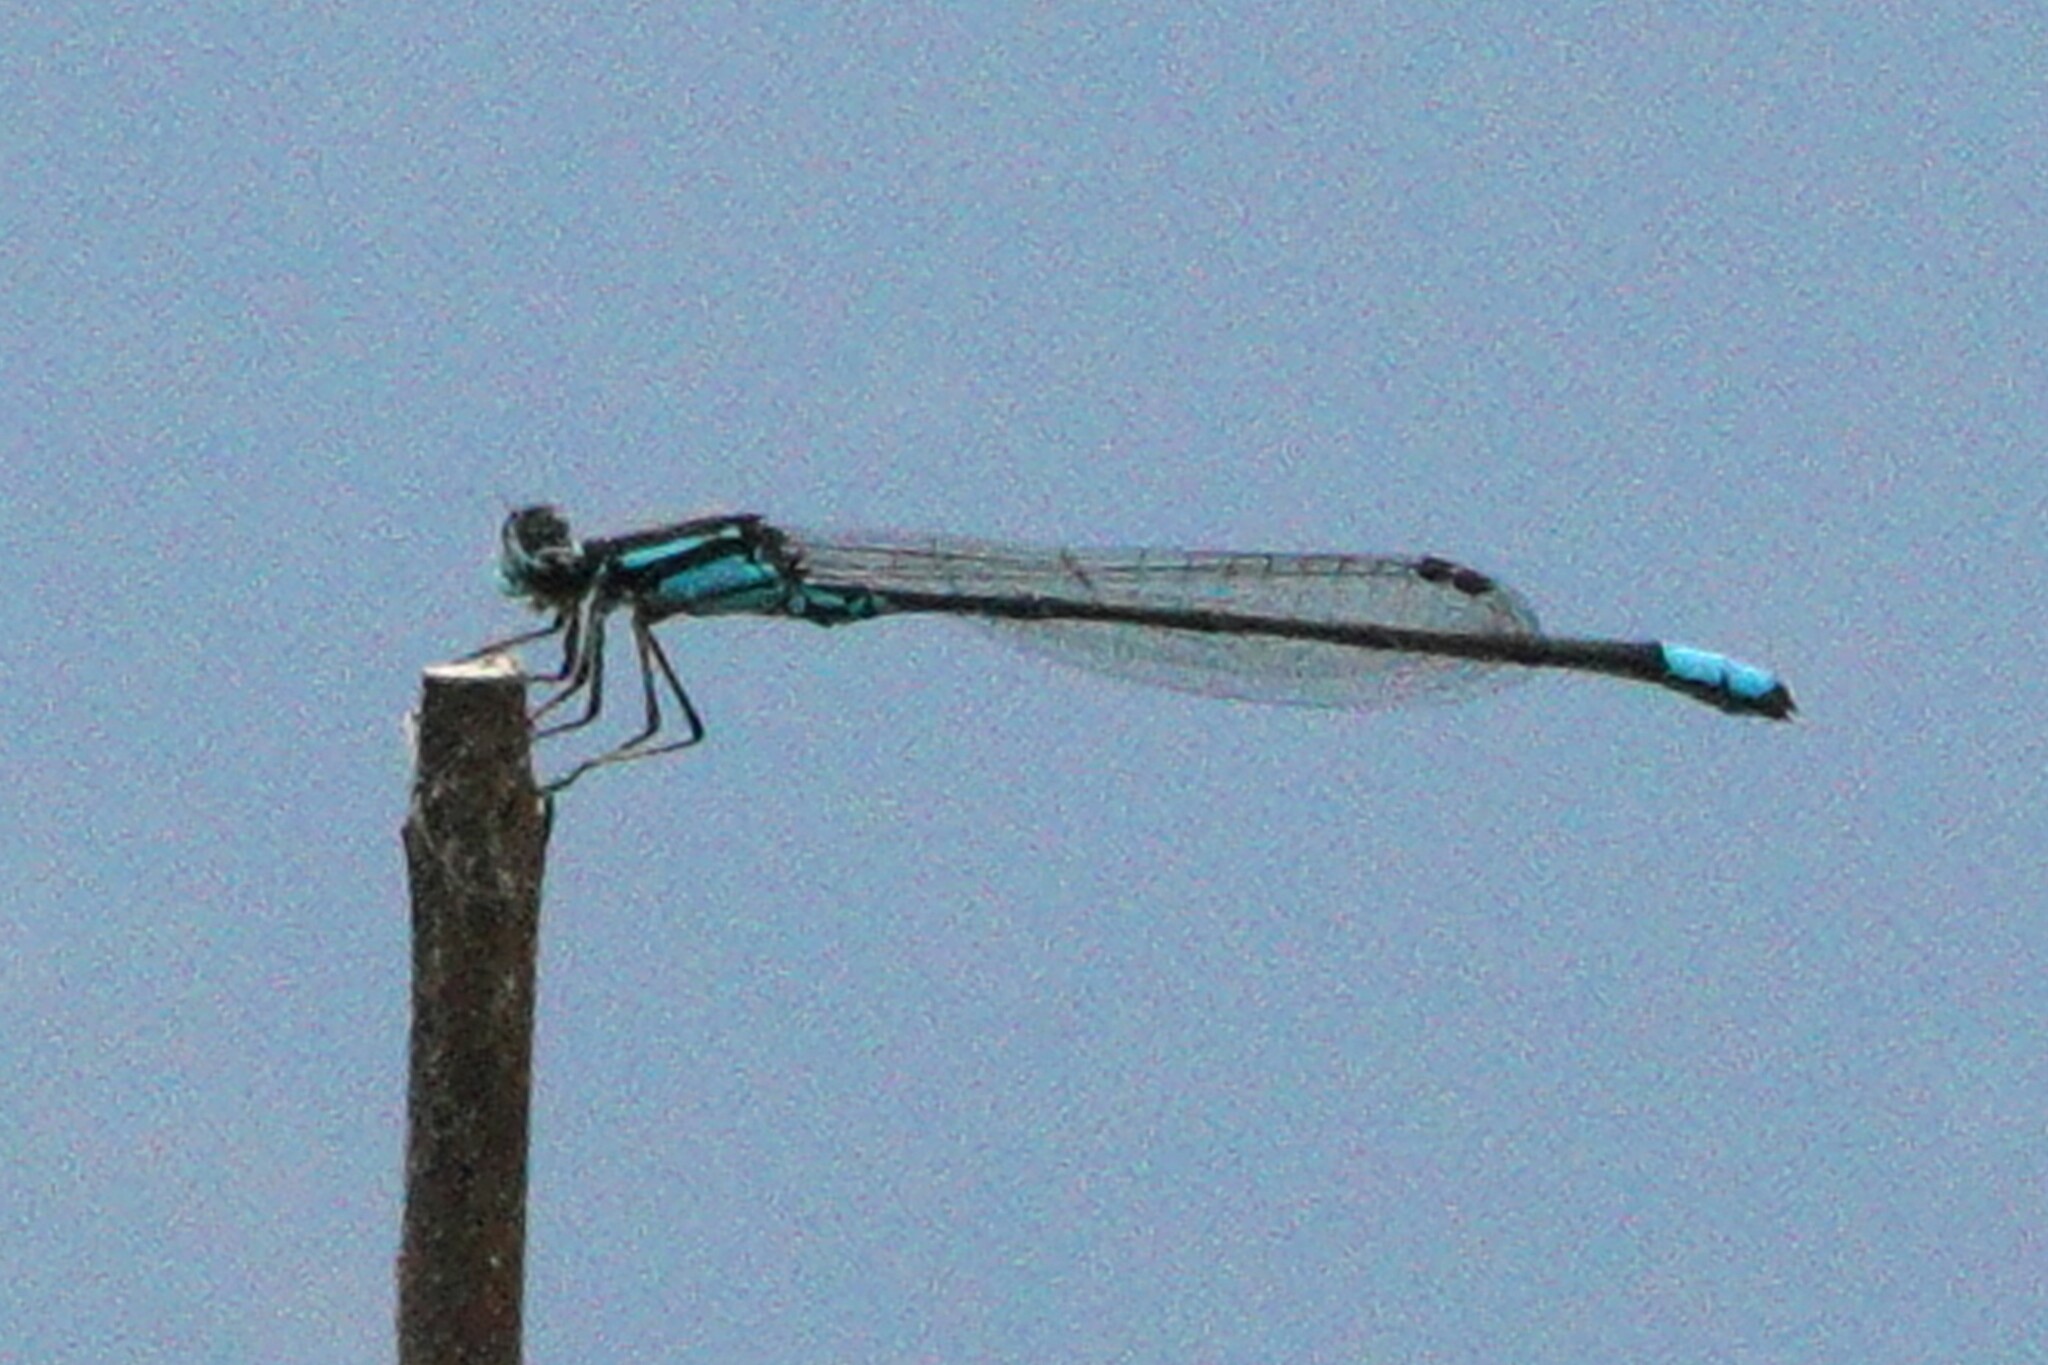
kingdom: Animalia
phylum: Arthropoda
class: Insecta
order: Odonata
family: Coenagrionidae
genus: Enallagma
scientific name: Enallagma geminatum
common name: Skimming bluet
